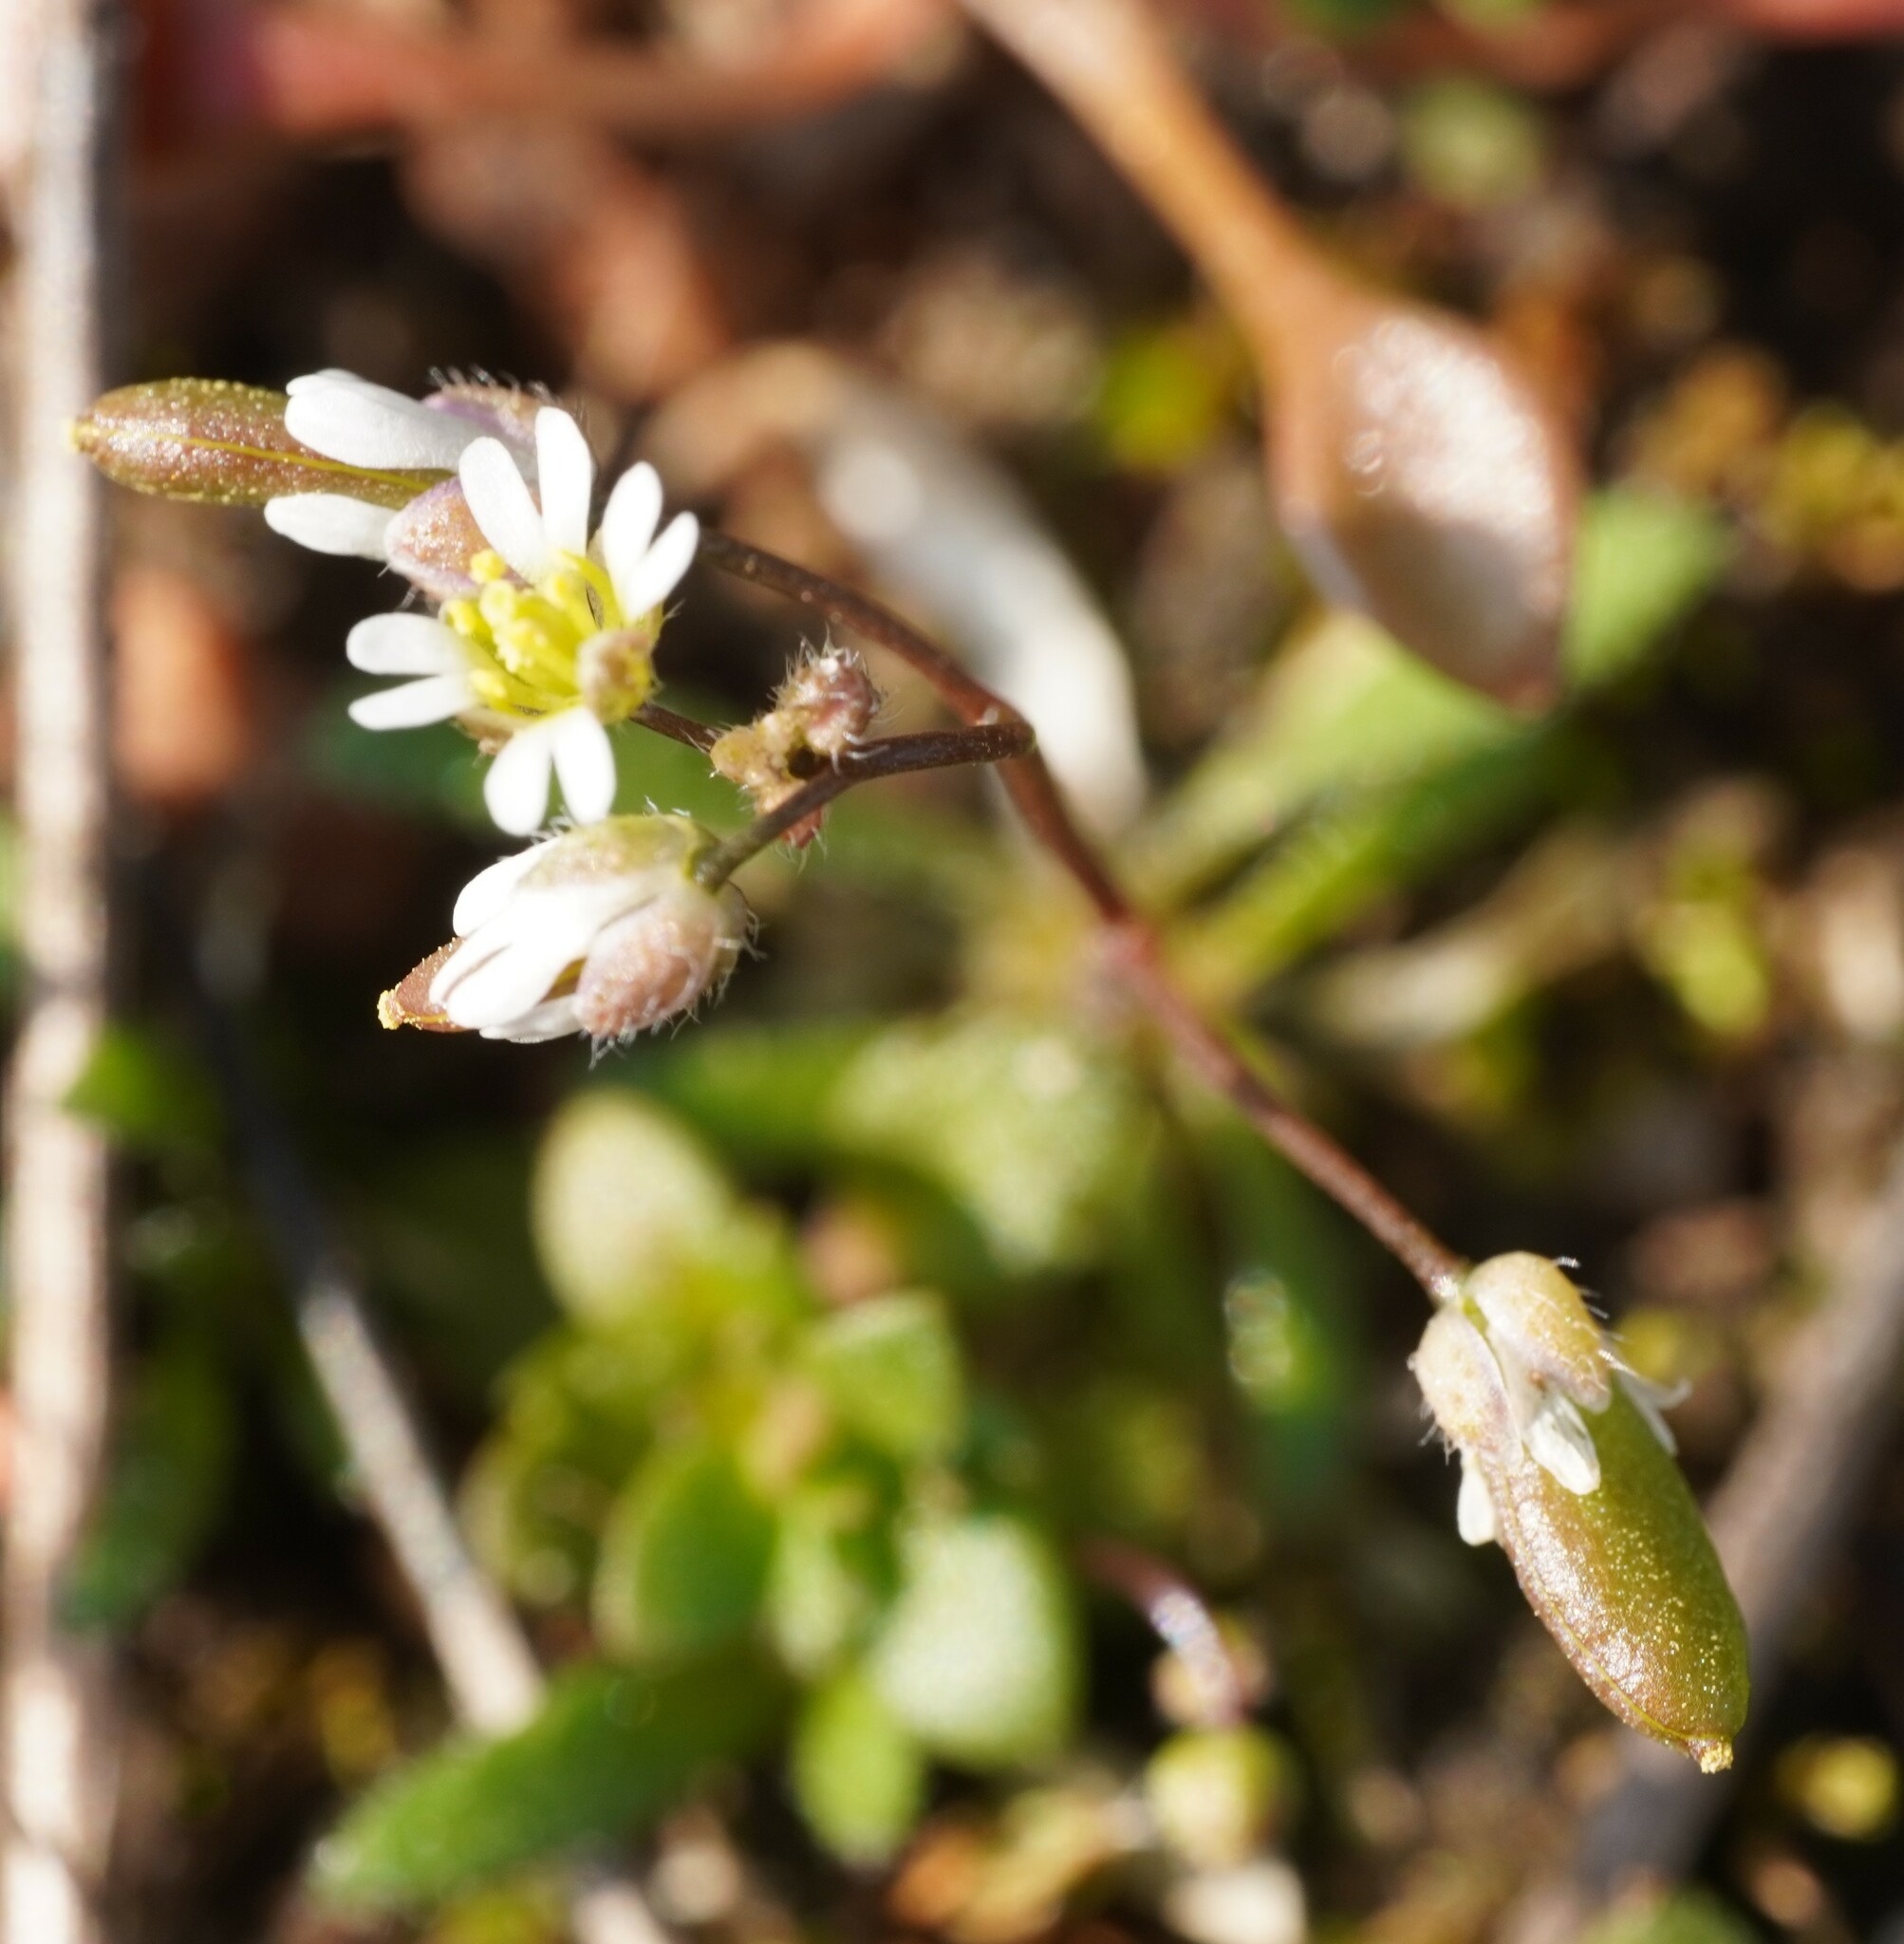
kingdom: Plantae
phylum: Tracheophyta
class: Magnoliopsida
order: Brassicales
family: Brassicaceae
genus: Draba
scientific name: Draba verna
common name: Spring draba
